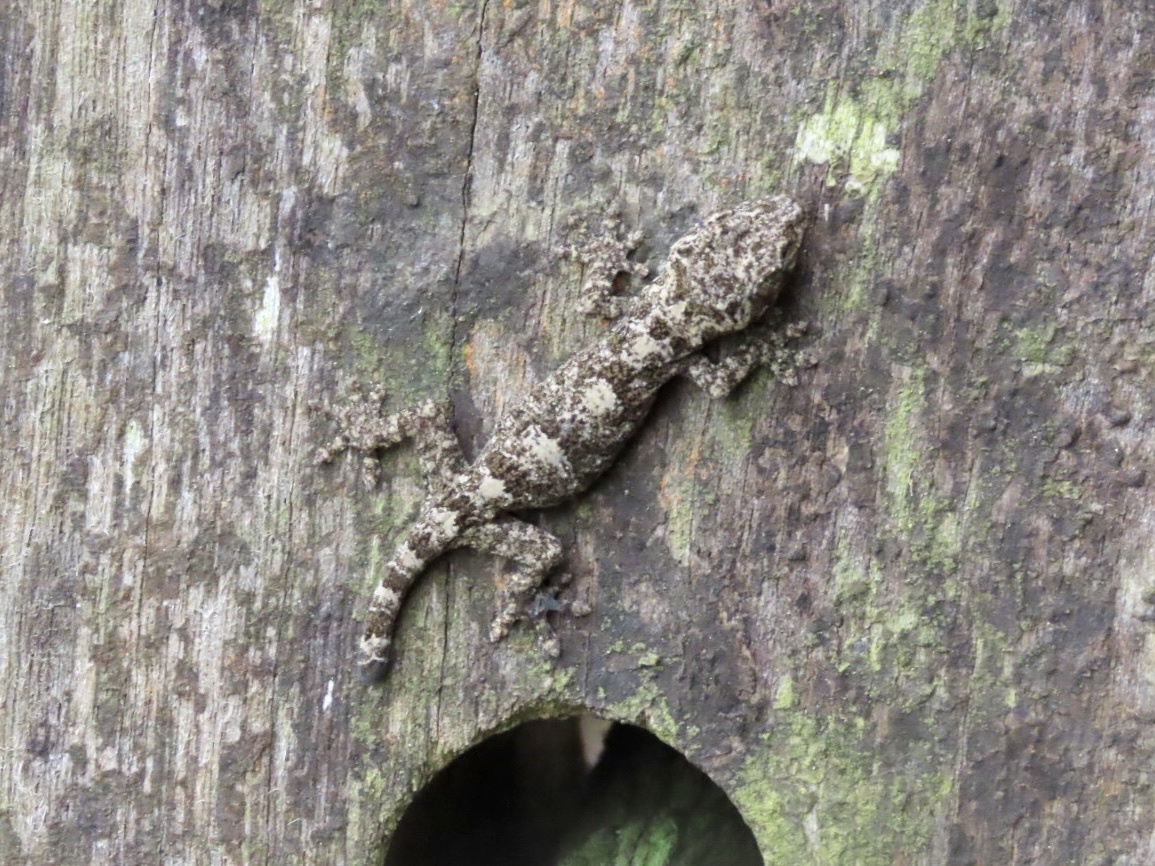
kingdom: Animalia
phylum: Chordata
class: Squamata
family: Gekkonidae
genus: Gekko
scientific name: Gekko chinensis
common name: Gray's chinese gecko
